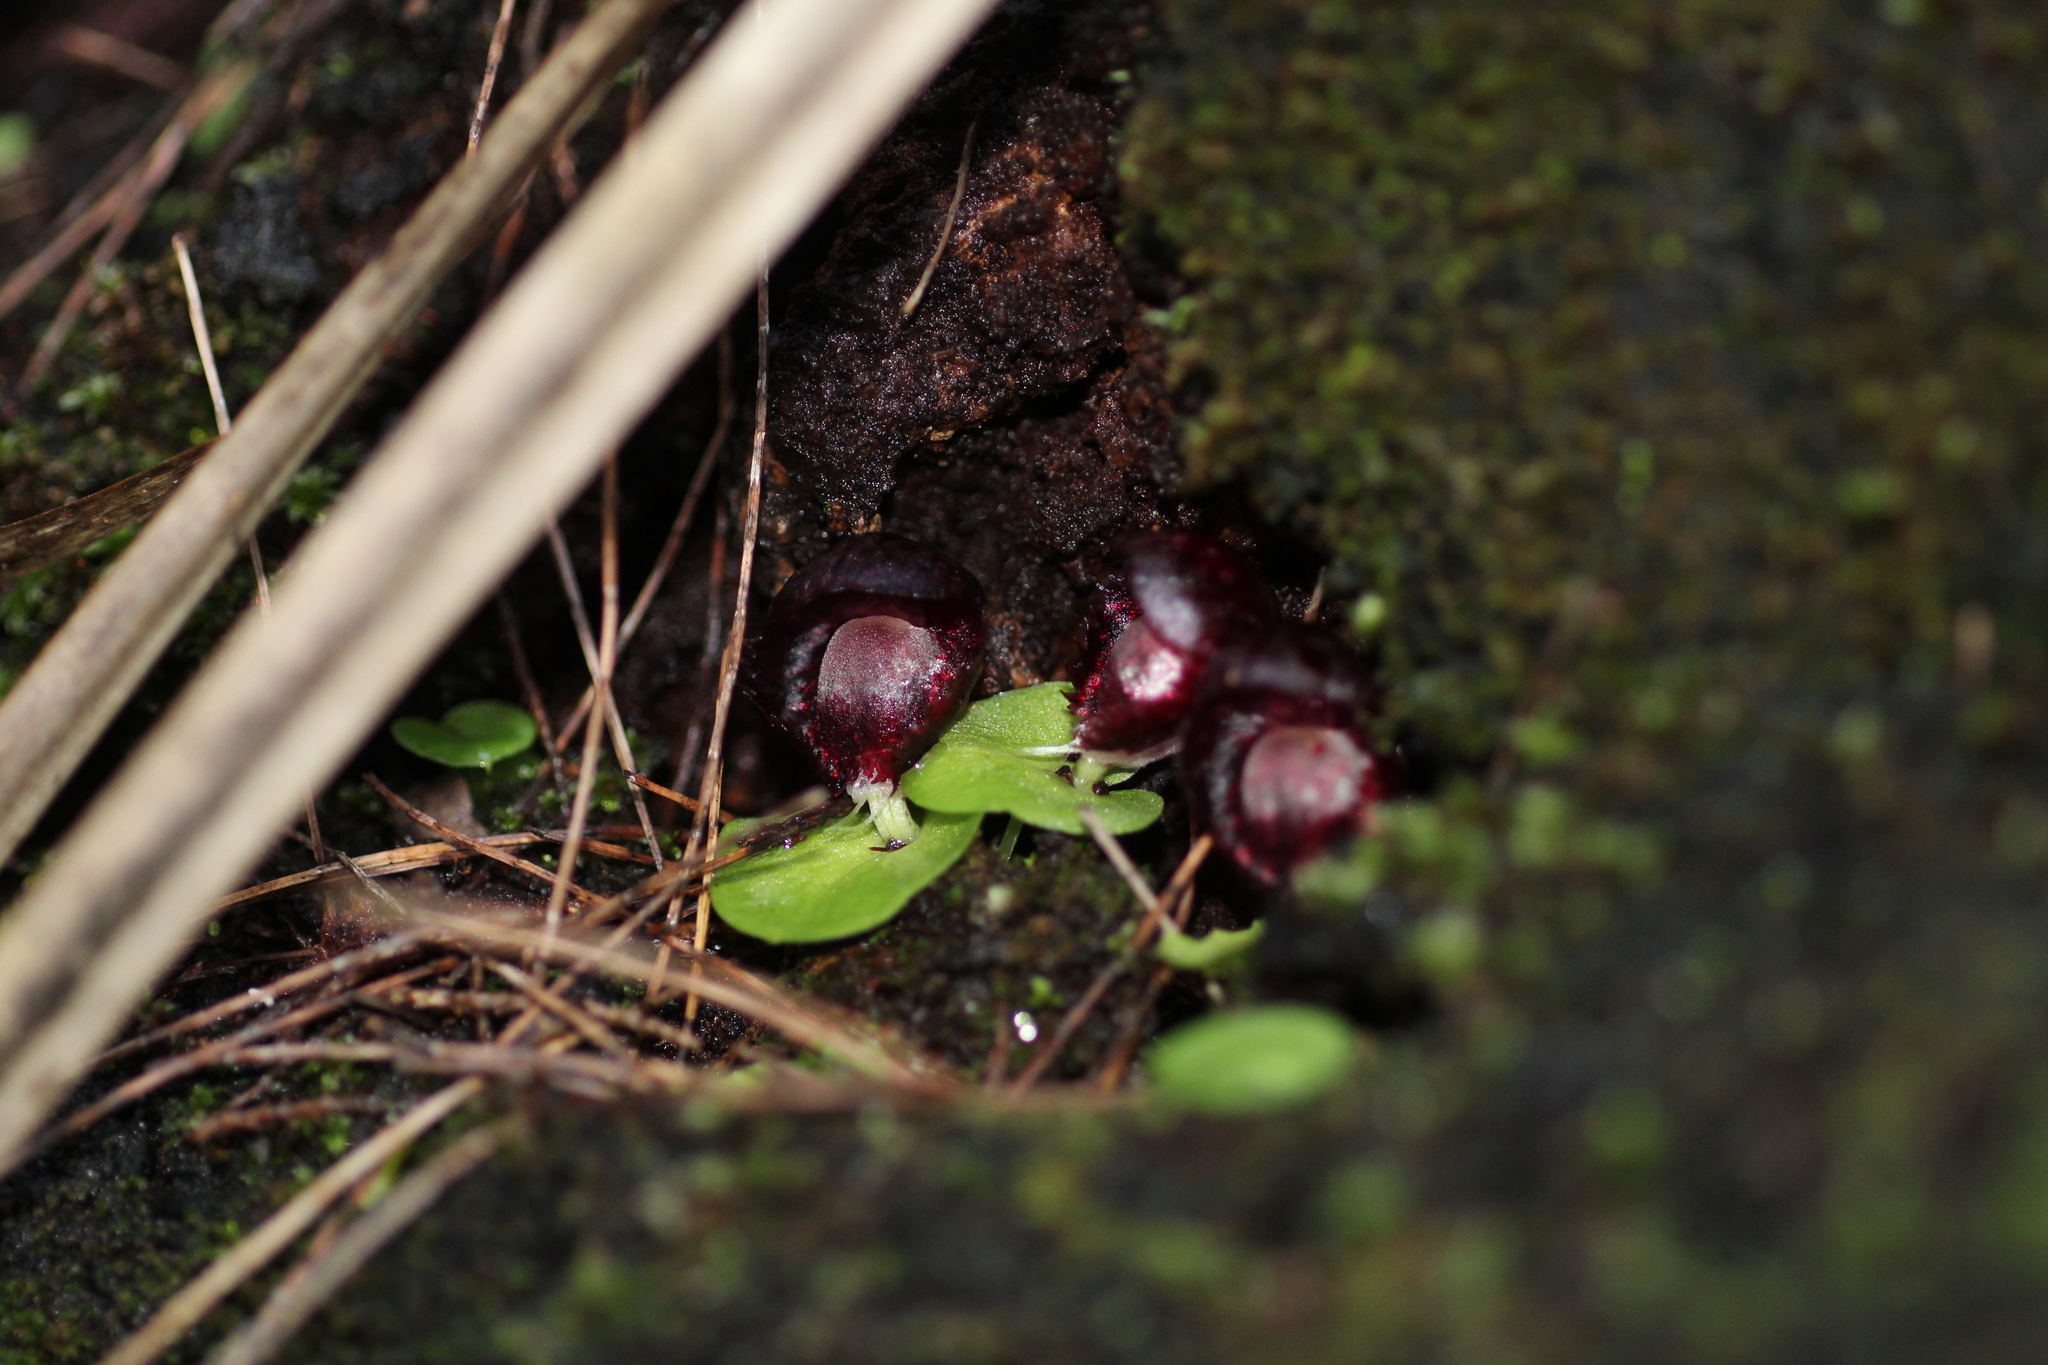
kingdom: Plantae
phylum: Tracheophyta
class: Liliopsida
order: Asparagales
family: Orchidaceae
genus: Corybas
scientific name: Corybas recurvus
